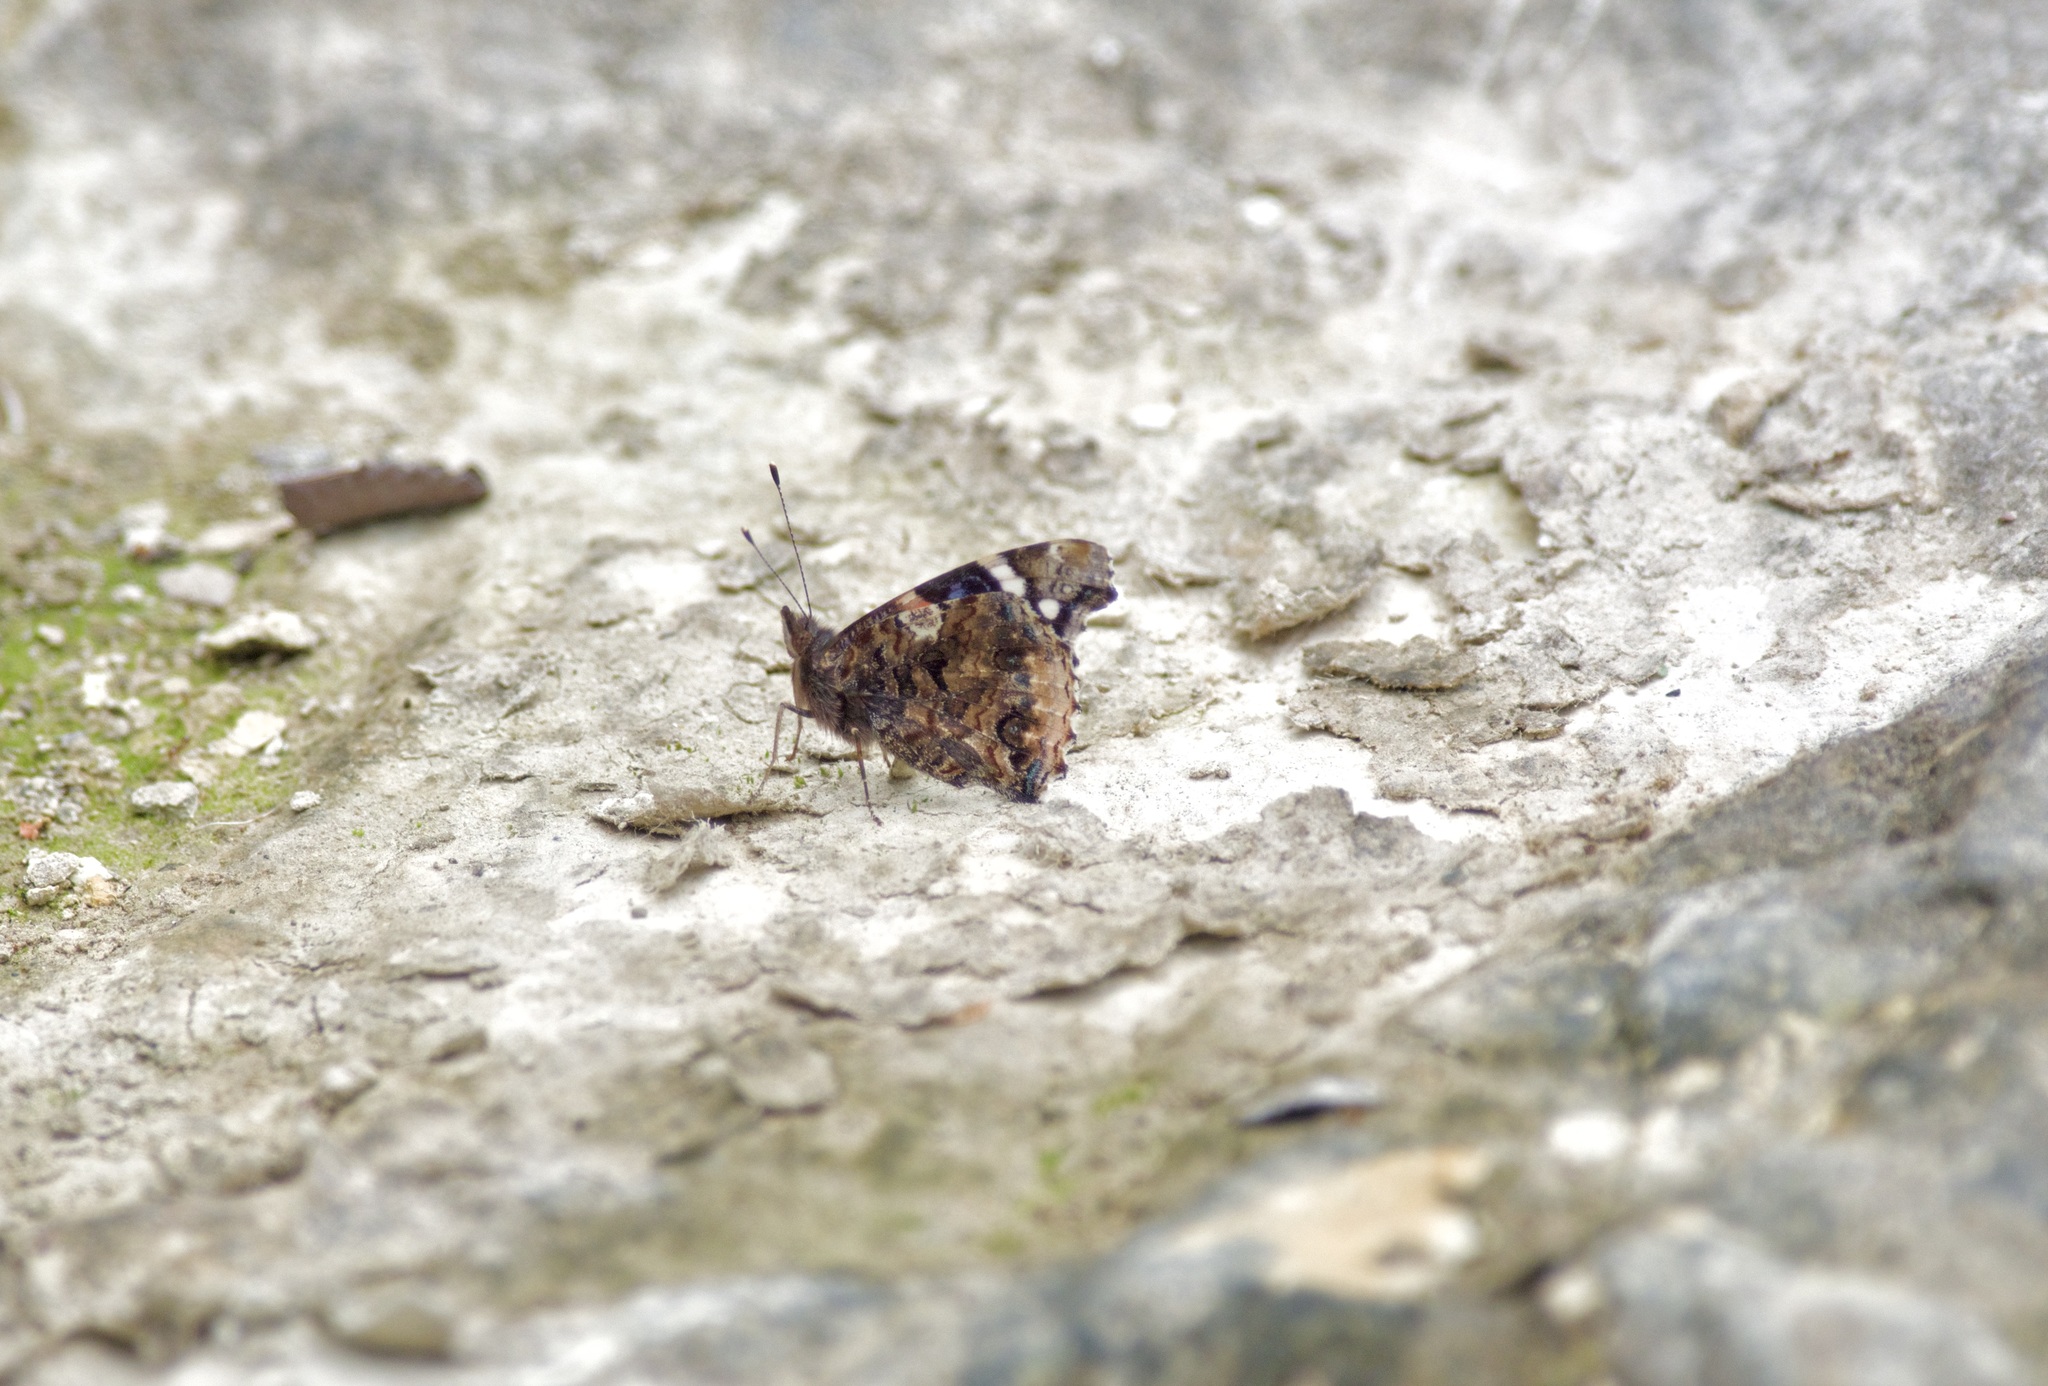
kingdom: Animalia
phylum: Arthropoda
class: Insecta
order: Lepidoptera
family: Nymphalidae
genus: Vanessa
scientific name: Vanessa atalanta
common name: Red admiral
